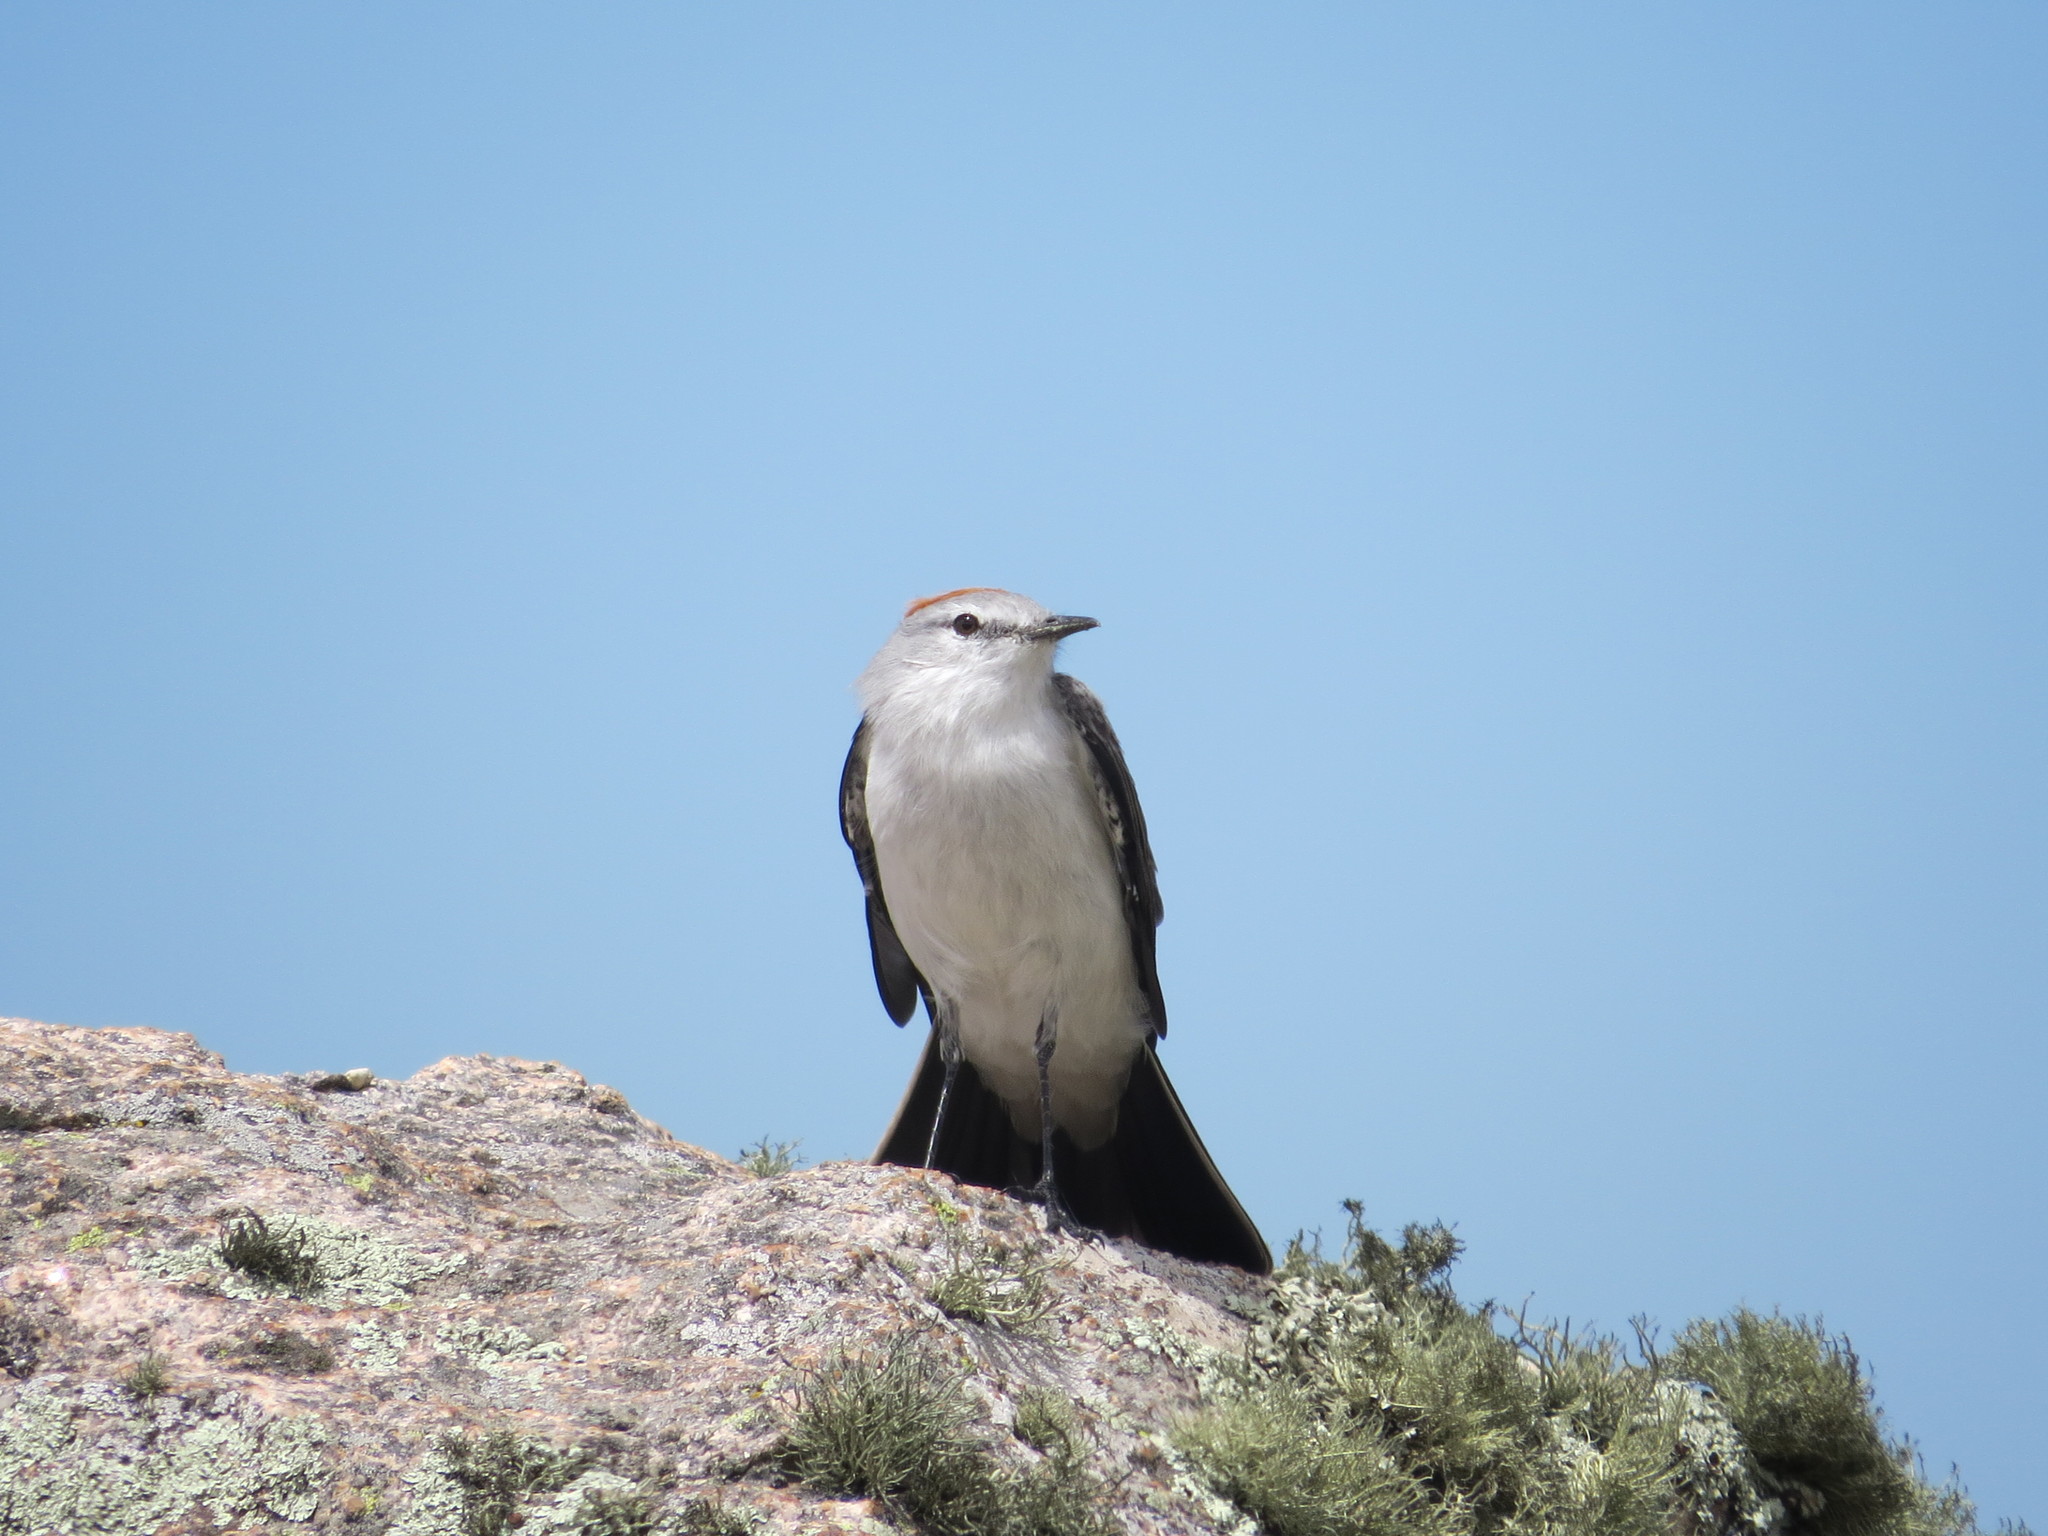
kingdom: Animalia
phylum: Chordata
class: Aves
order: Passeriformes
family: Tyrannidae
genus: Muscisaxicola
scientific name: Muscisaxicola rufivertex
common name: Rufous-naped ground tyrant
